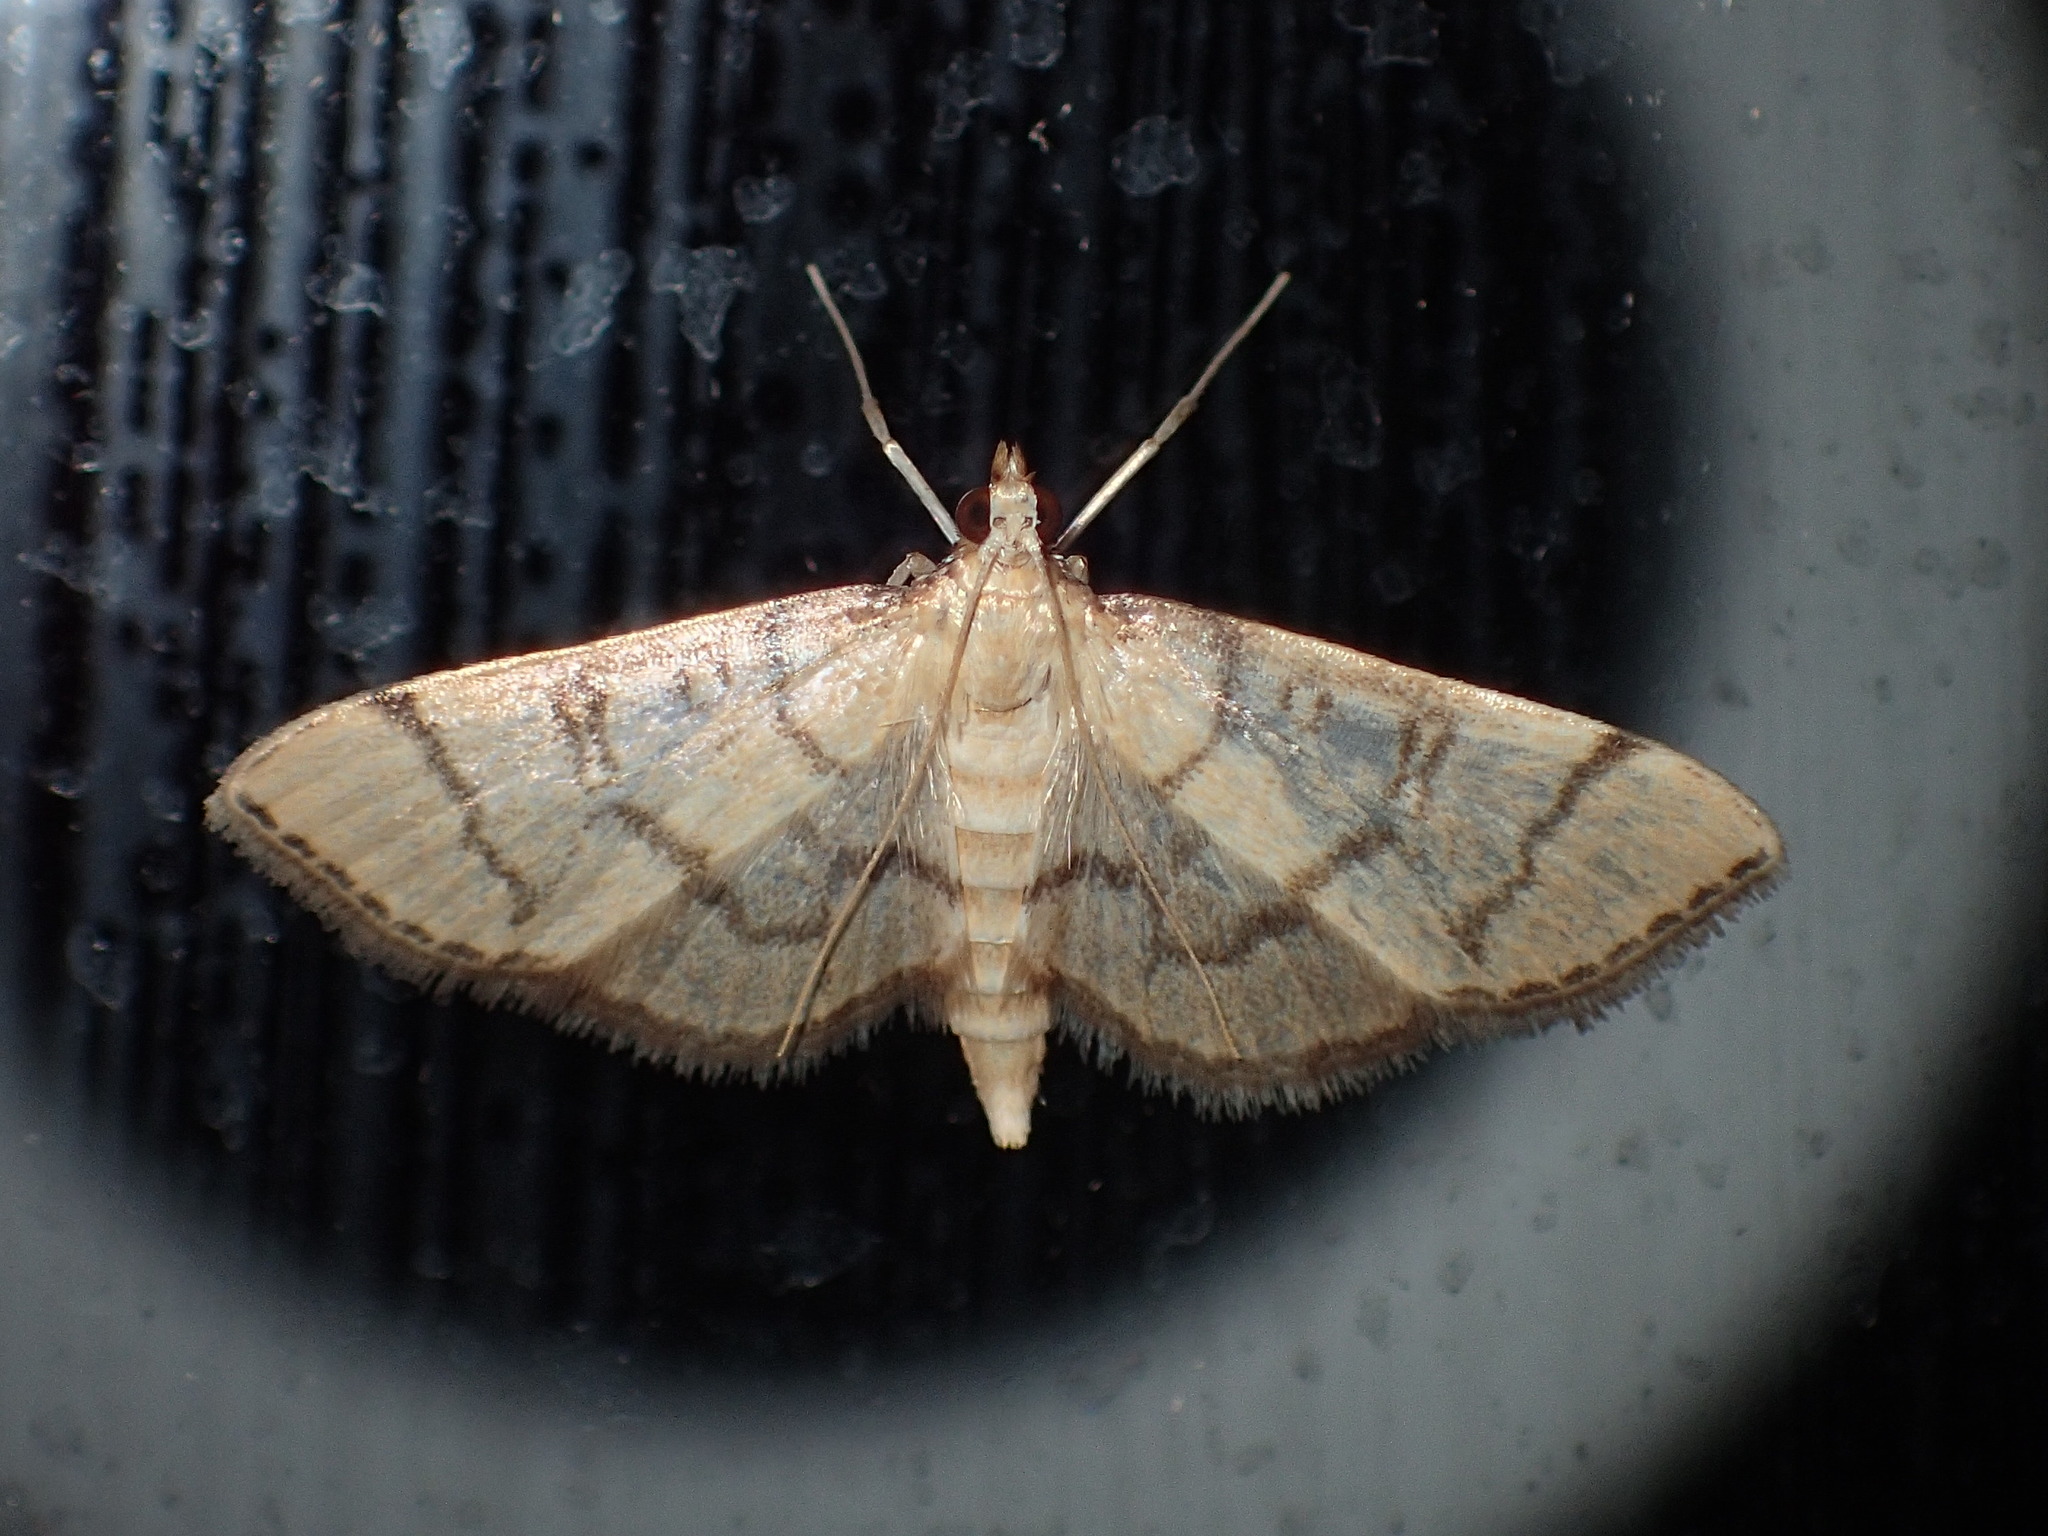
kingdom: Animalia
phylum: Arthropoda
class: Insecta
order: Lepidoptera
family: Crambidae
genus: Lamprosema
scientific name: Lamprosema Blepharomastix ranalis
